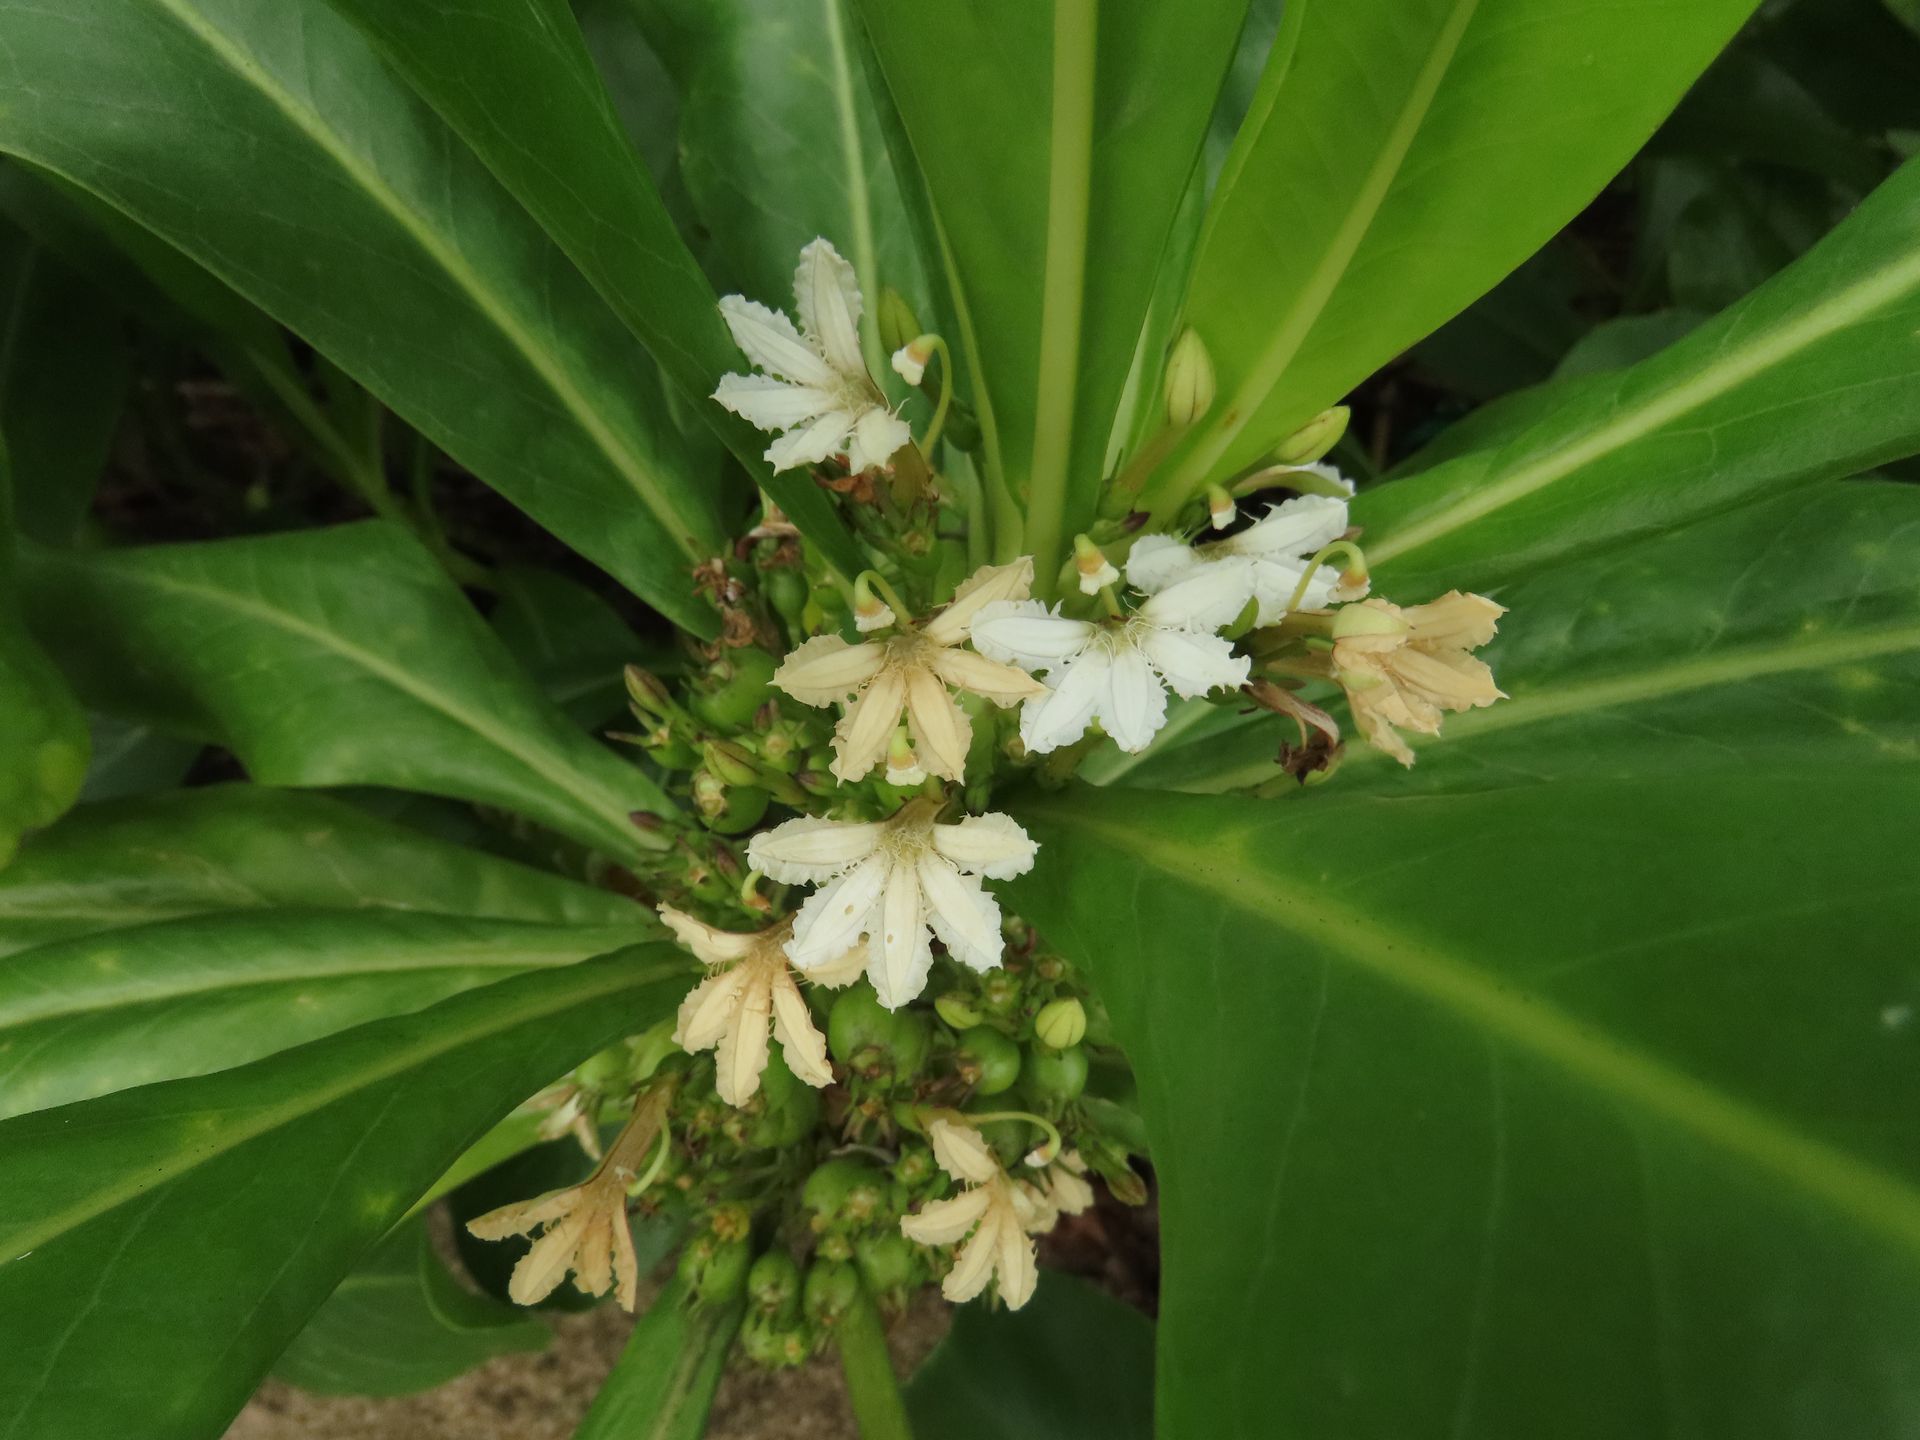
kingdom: Plantae
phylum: Tracheophyta
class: Magnoliopsida
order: Asterales
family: Goodeniaceae
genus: Scaevola
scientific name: Scaevola taccada
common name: Sea lettucetree
